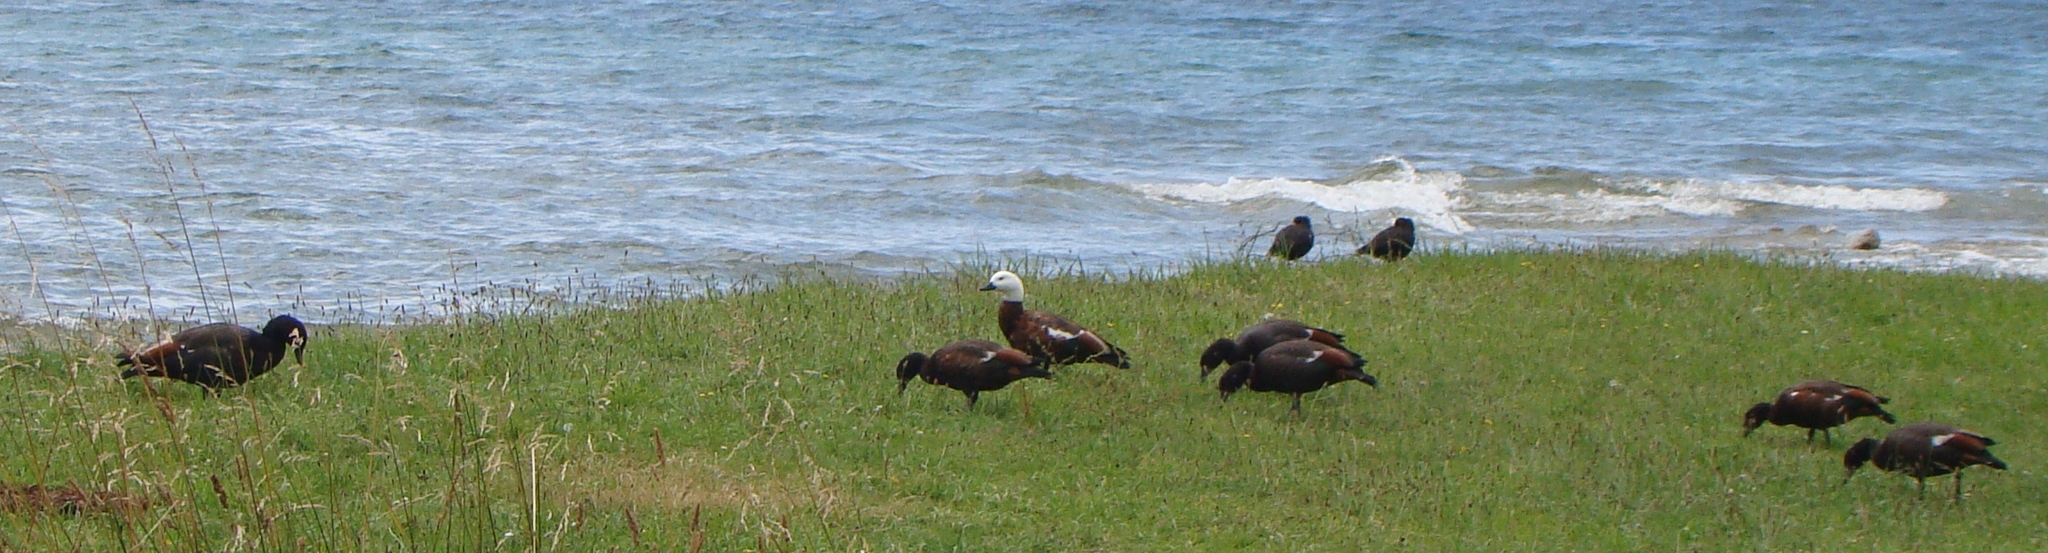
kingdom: Animalia
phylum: Chordata
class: Aves
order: Anseriformes
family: Anatidae
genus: Tadorna
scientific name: Tadorna variegata
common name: Paradise shelduck
